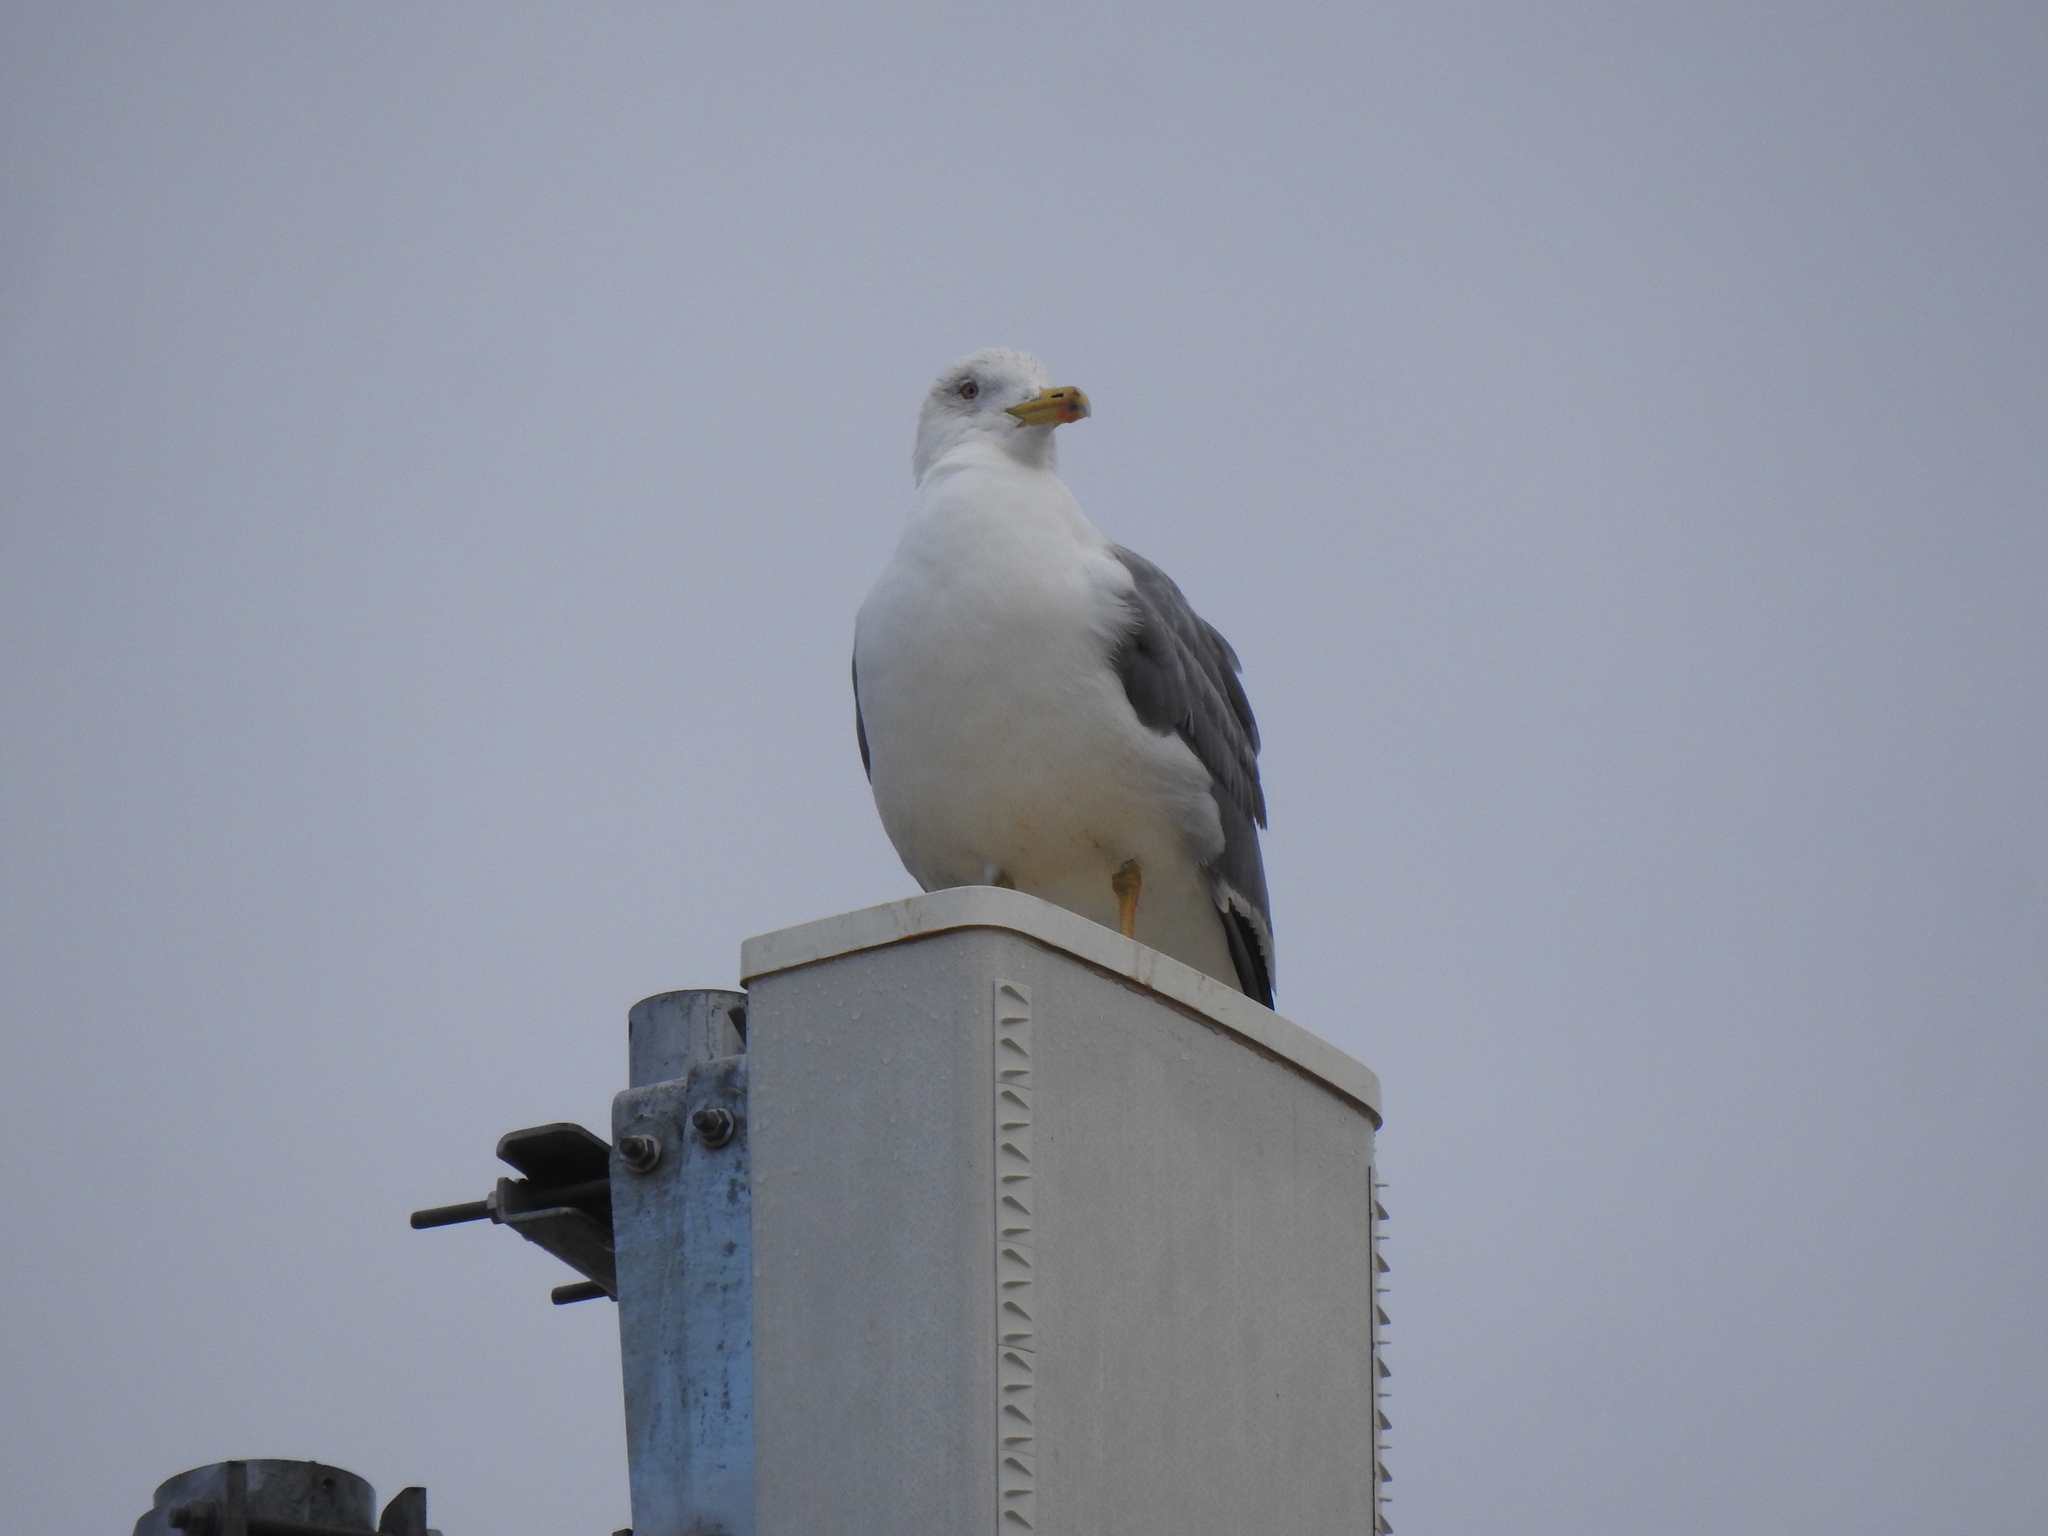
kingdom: Animalia
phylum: Chordata
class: Aves
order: Charadriiformes
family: Laridae
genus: Larus
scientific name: Larus michahellis
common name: Yellow-legged gull
